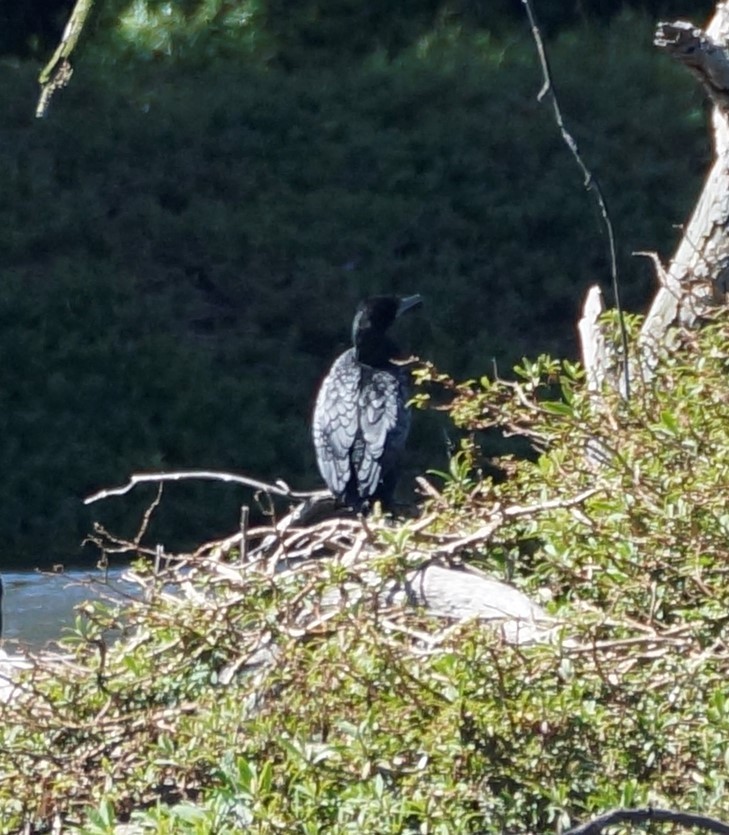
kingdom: Animalia
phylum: Chordata
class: Aves
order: Suliformes
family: Phalacrocoracidae
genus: Phalacrocorax
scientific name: Phalacrocorax sulcirostris
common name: Little black cormorant
